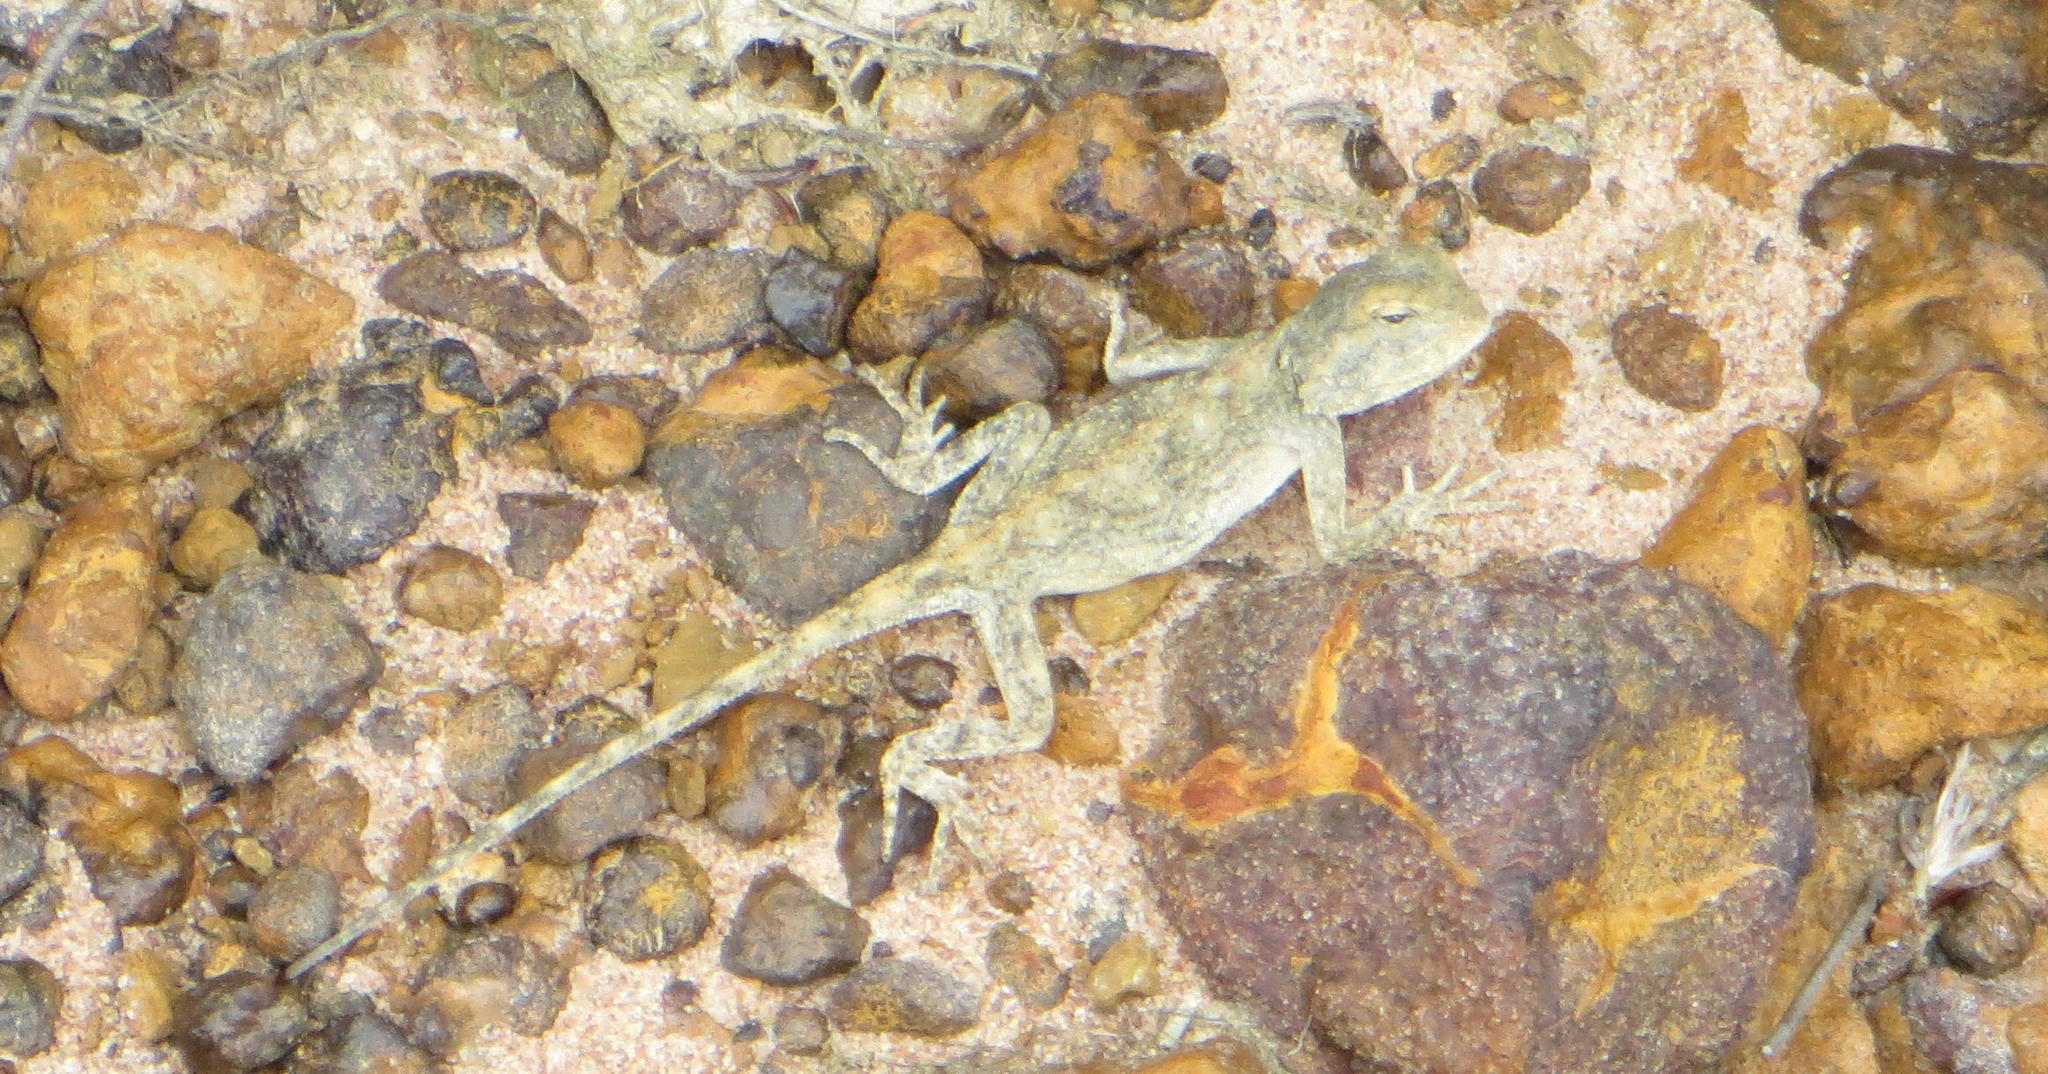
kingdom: Animalia
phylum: Chordata
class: Squamata
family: Agamidae
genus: Agama
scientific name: Agama atra
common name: Southern african rock agama
